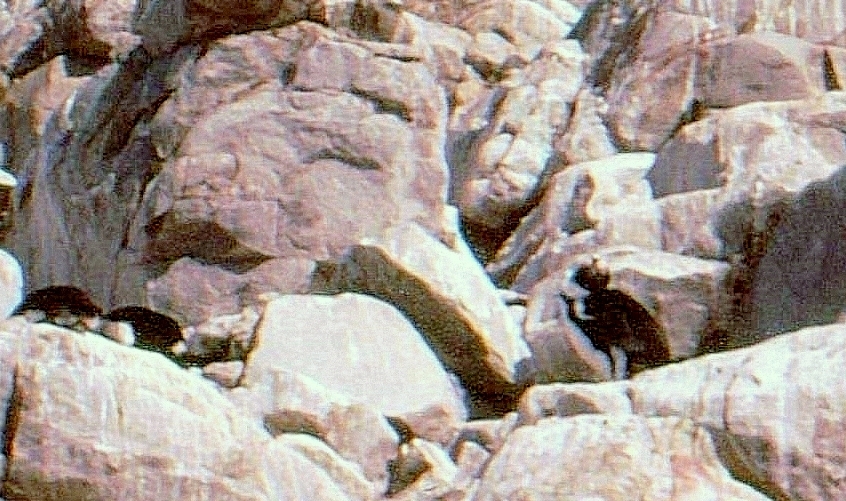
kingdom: Animalia
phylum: Chordata
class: Aves
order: Sphenisciformes
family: Spheniscidae
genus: Spheniscus
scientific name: Spheniscus demersus
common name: African penguin
